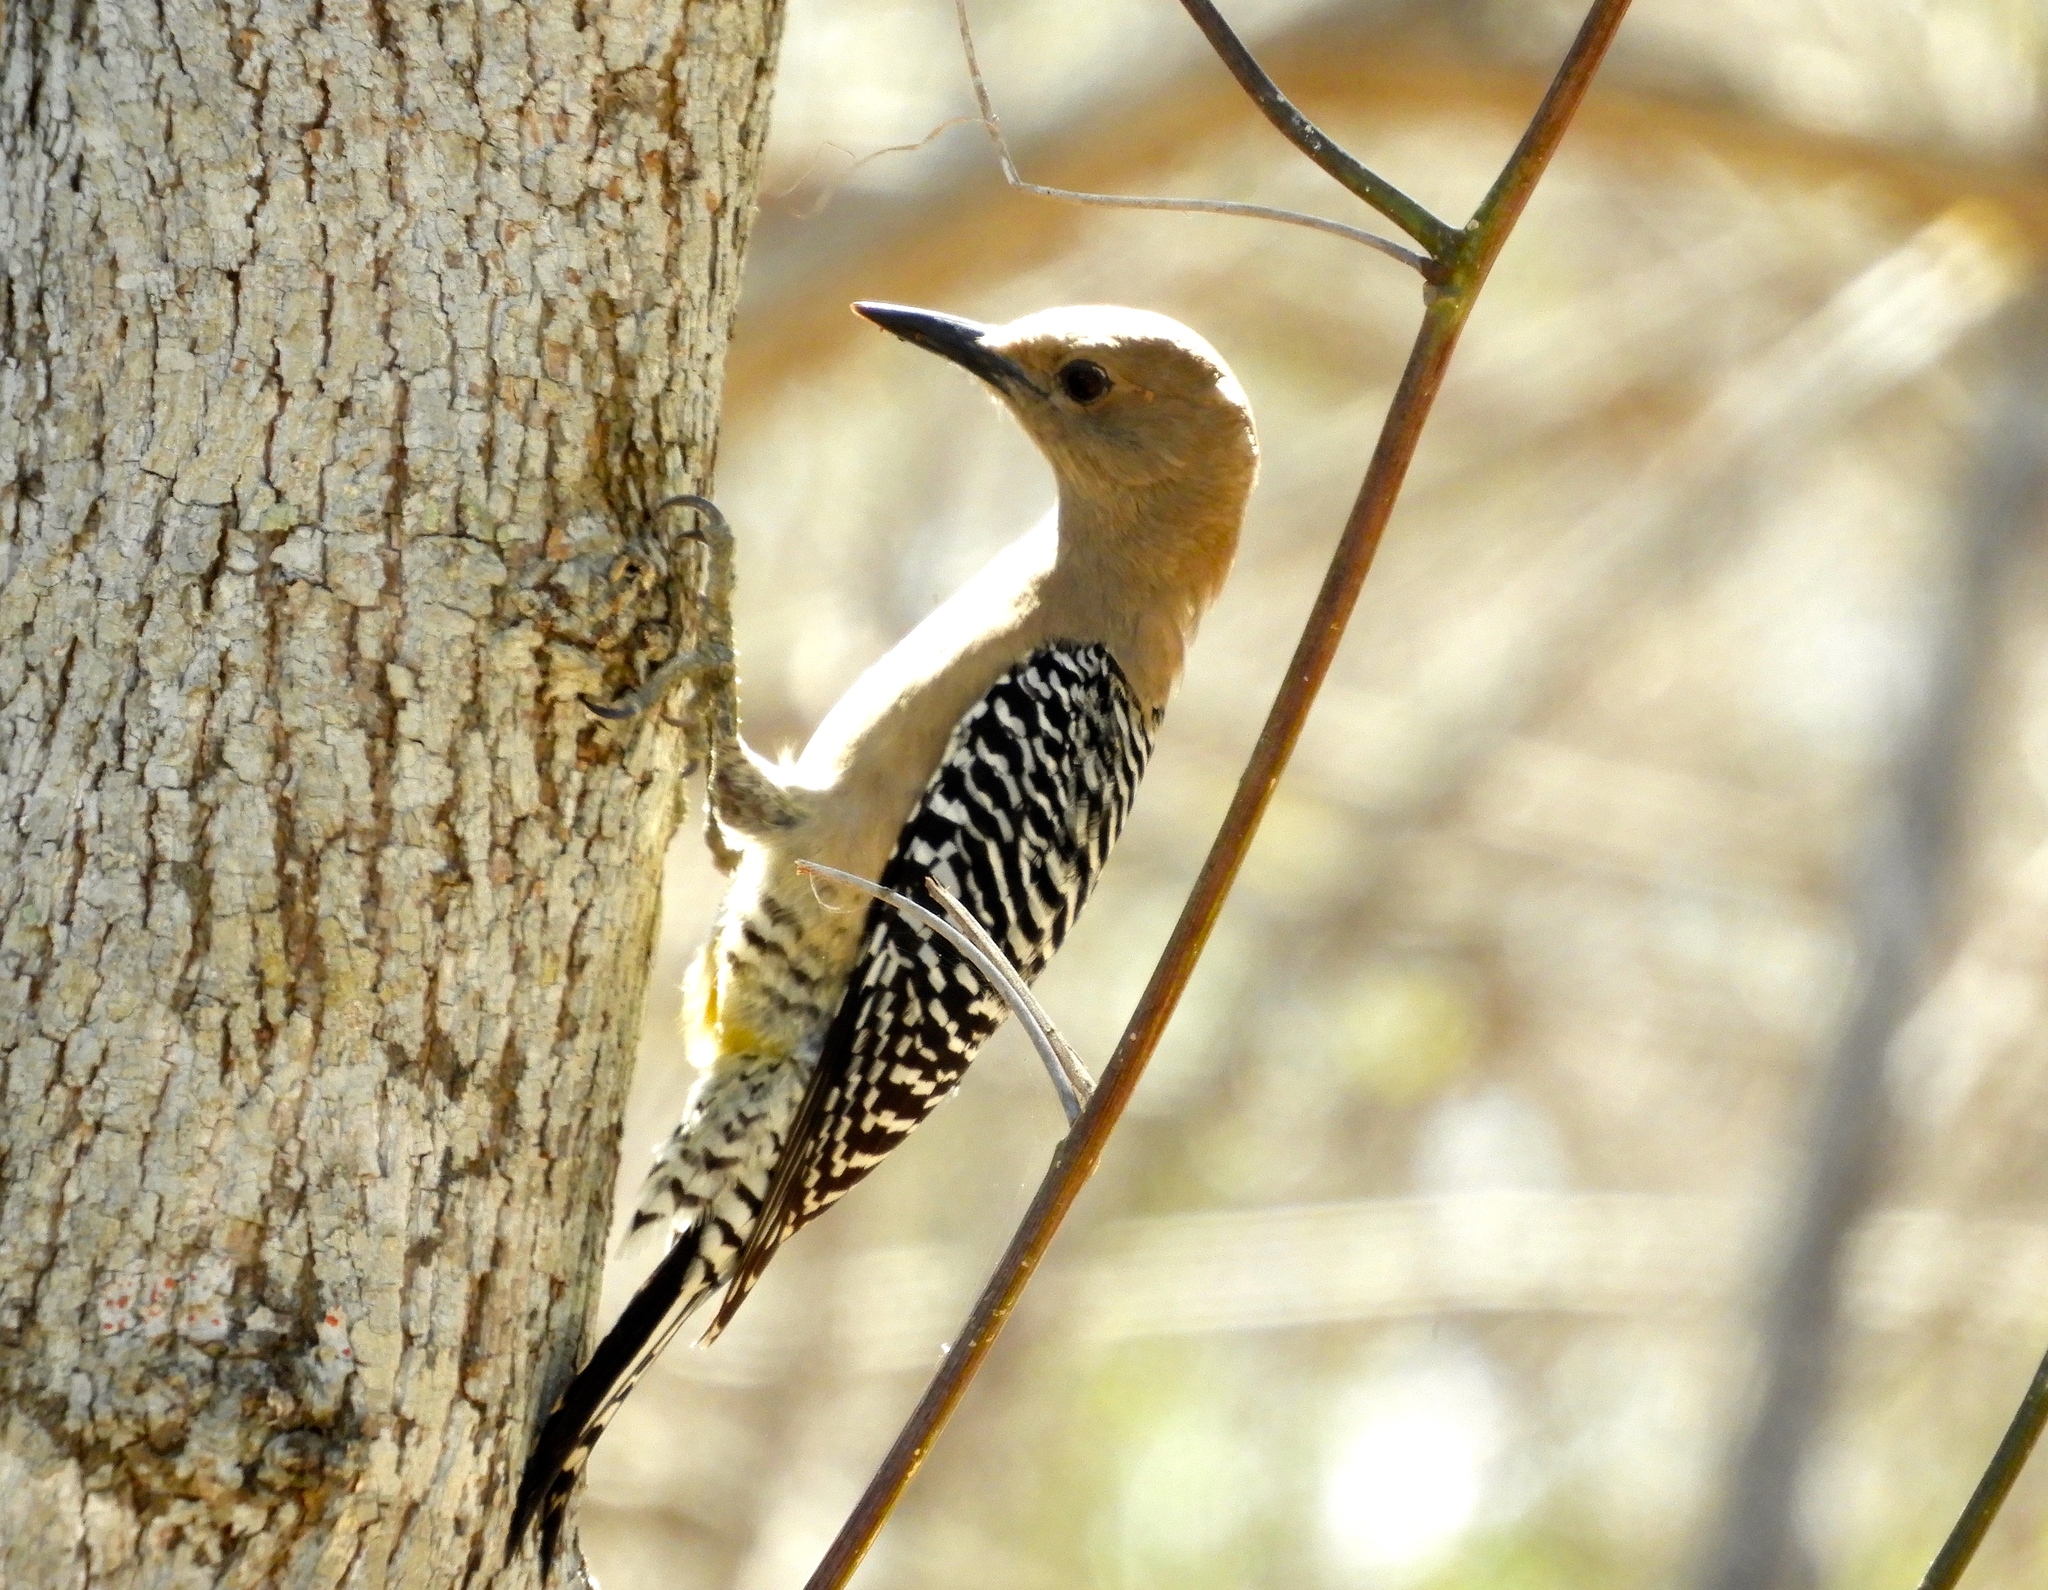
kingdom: Animalia
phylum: Chordata
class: Aves
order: Piciformes
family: Picidae
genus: Melanerpes
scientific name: Melanerpes uropygialis
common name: Gila woodpecker
